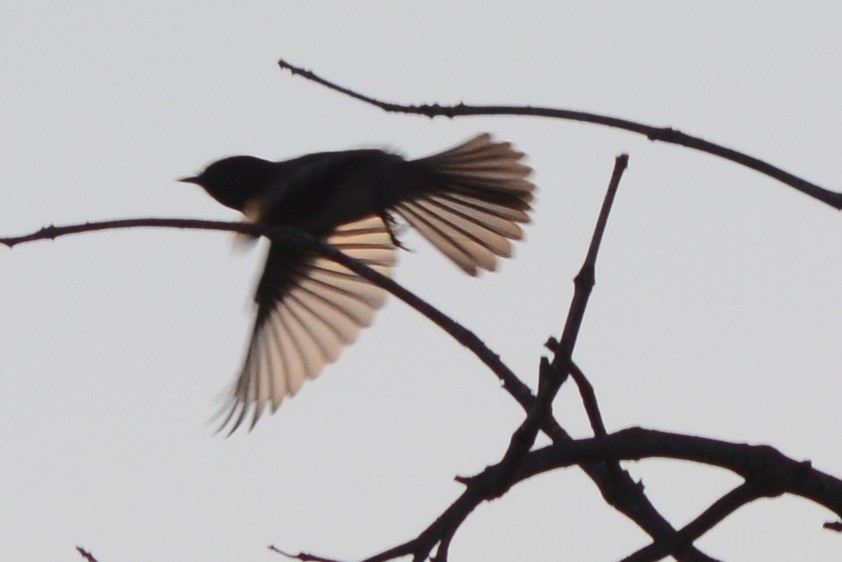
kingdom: Animalia
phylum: Chordata
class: Aves
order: Passeriformes
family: Tyrannidae
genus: Sayornis
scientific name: Sayornis nigricans
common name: Black phoebe
